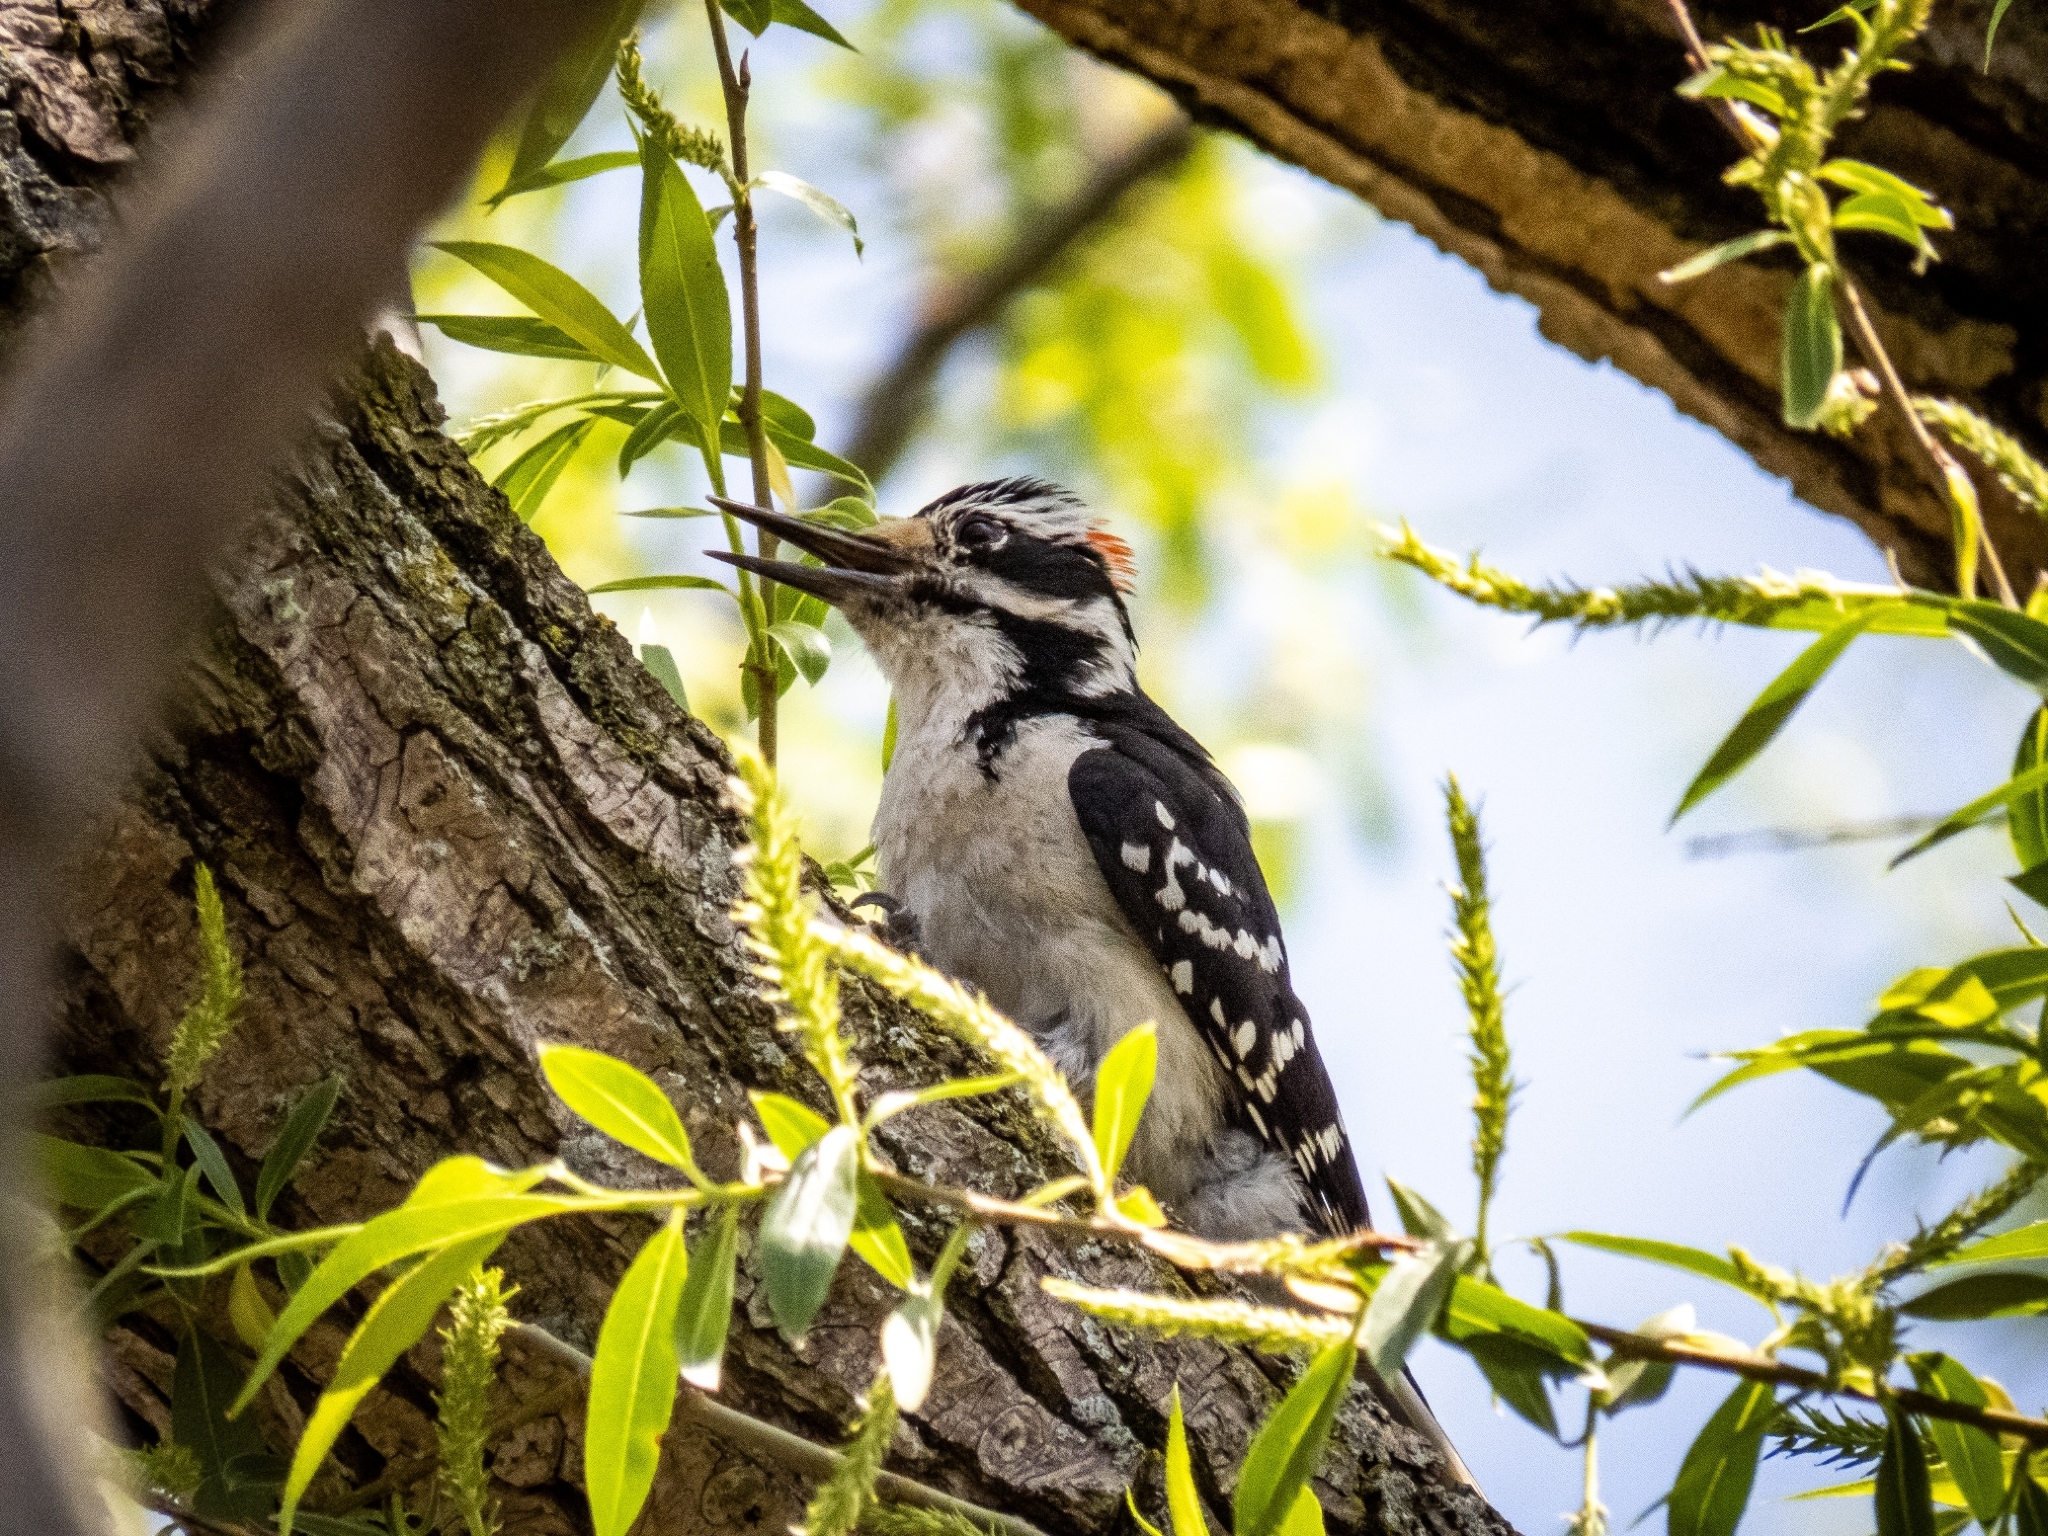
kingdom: Animalia
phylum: Chordata
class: Aves
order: Piciformes
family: Picidae
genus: Leuconotopicus
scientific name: Leuconotopicus villosus
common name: Hairy woodpecker
